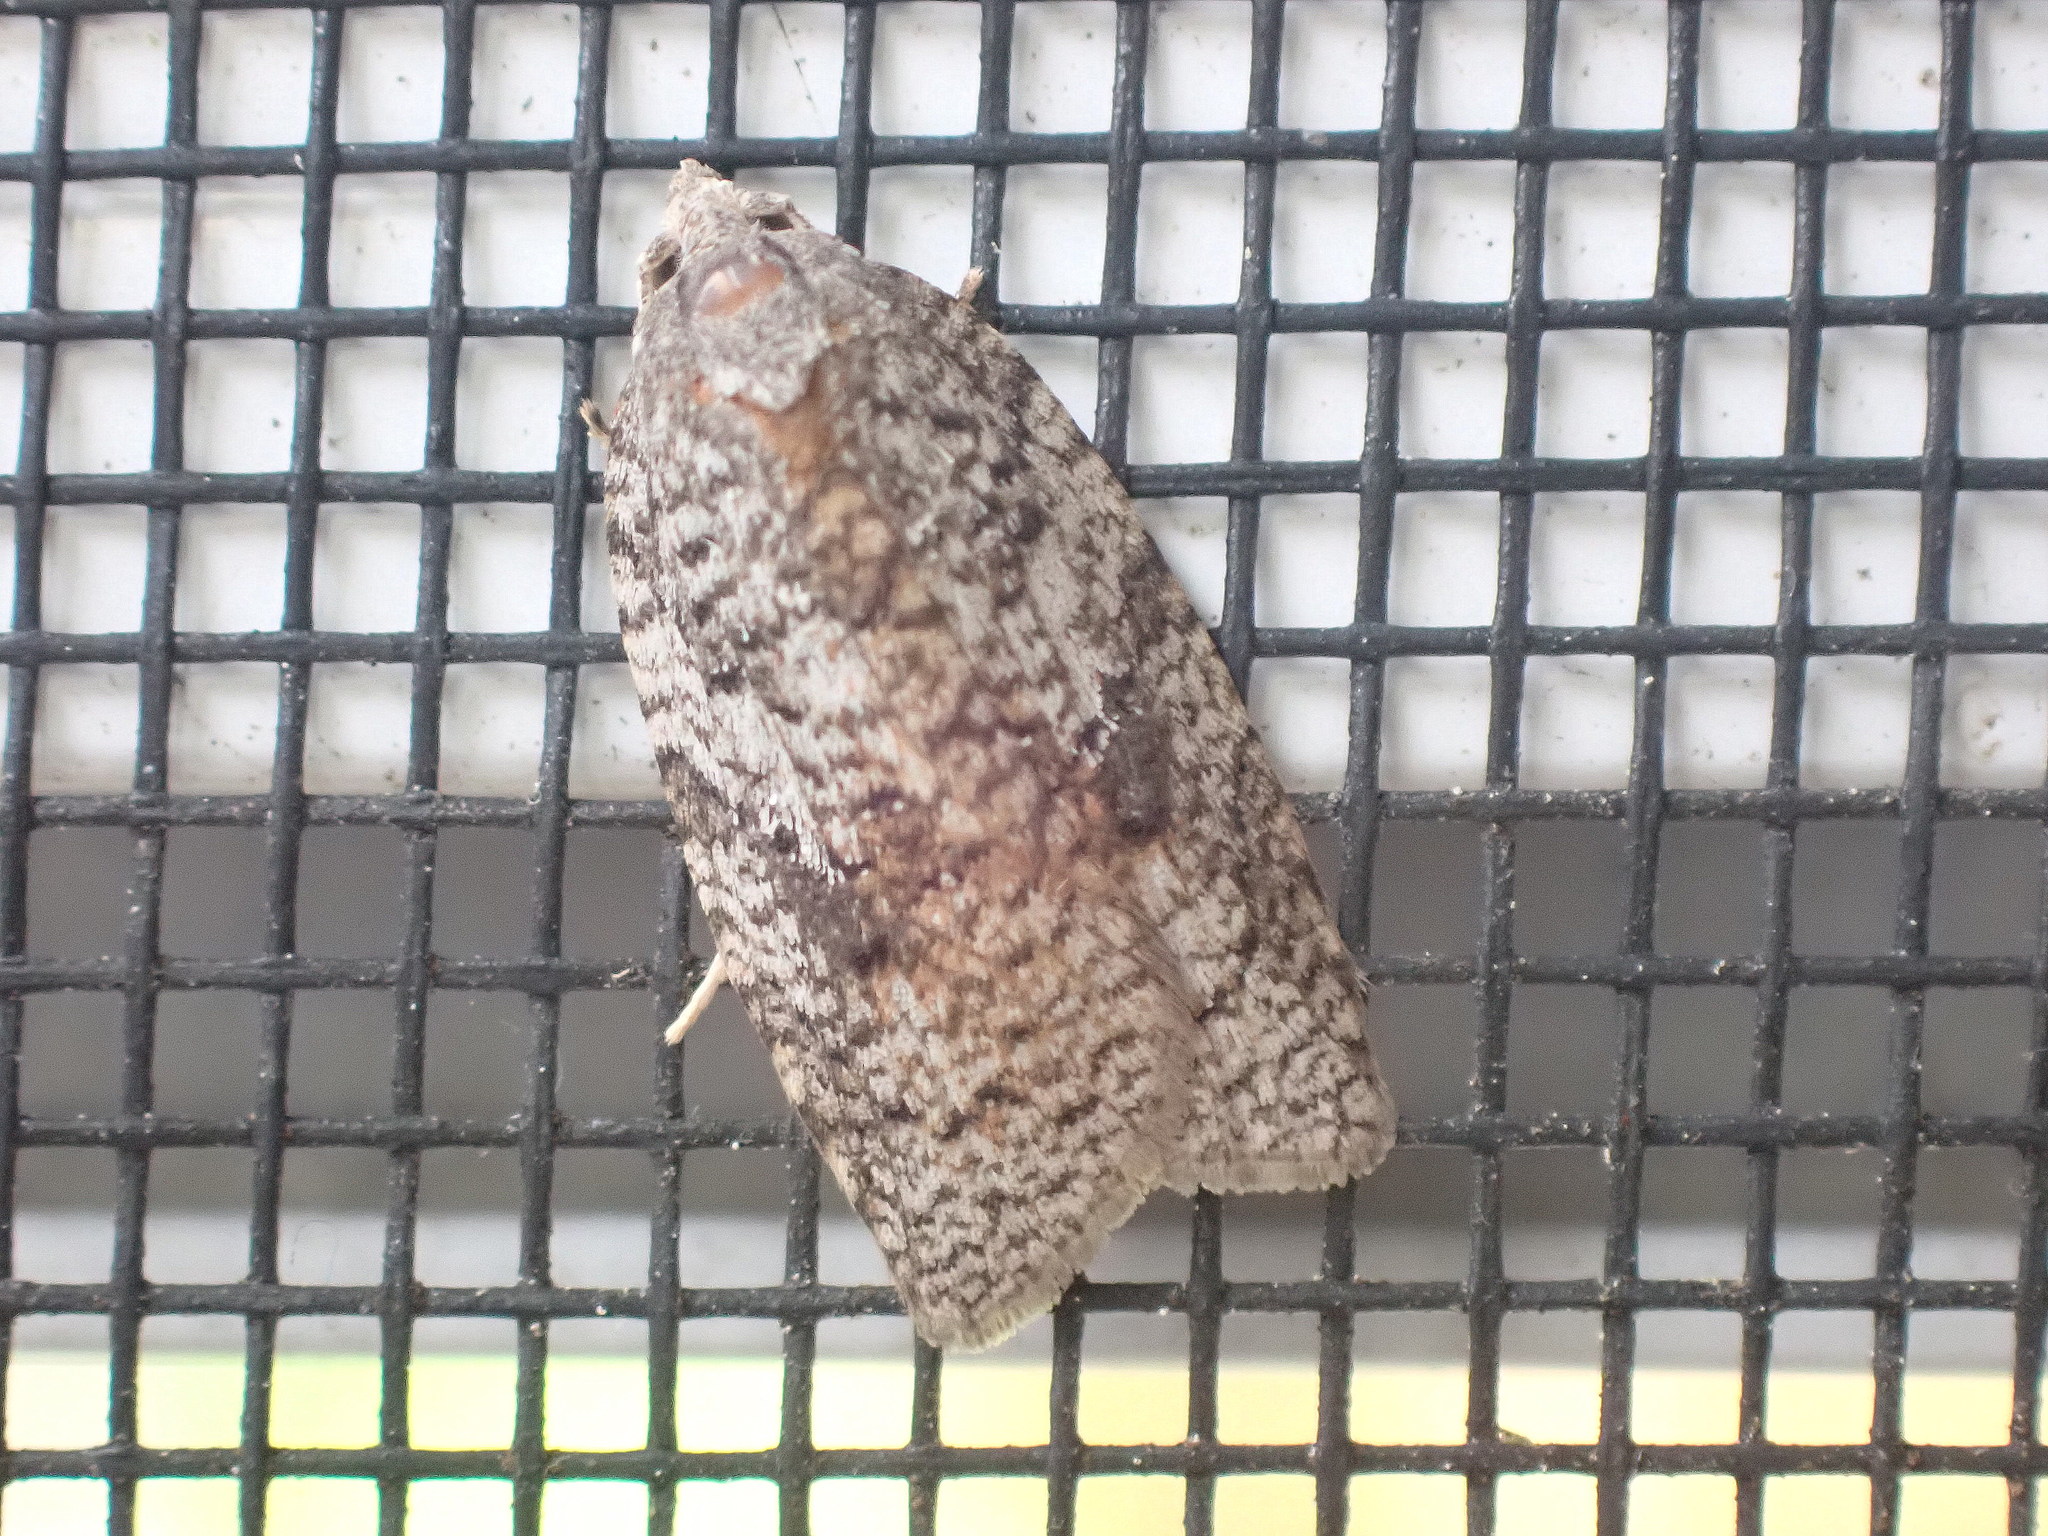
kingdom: Animalia
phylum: Arthropoda
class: Insecta
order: Lepidoptera
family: Tortricidae
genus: Amorbia
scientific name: Amorbia humerosana
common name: White-lined leafroller moth
